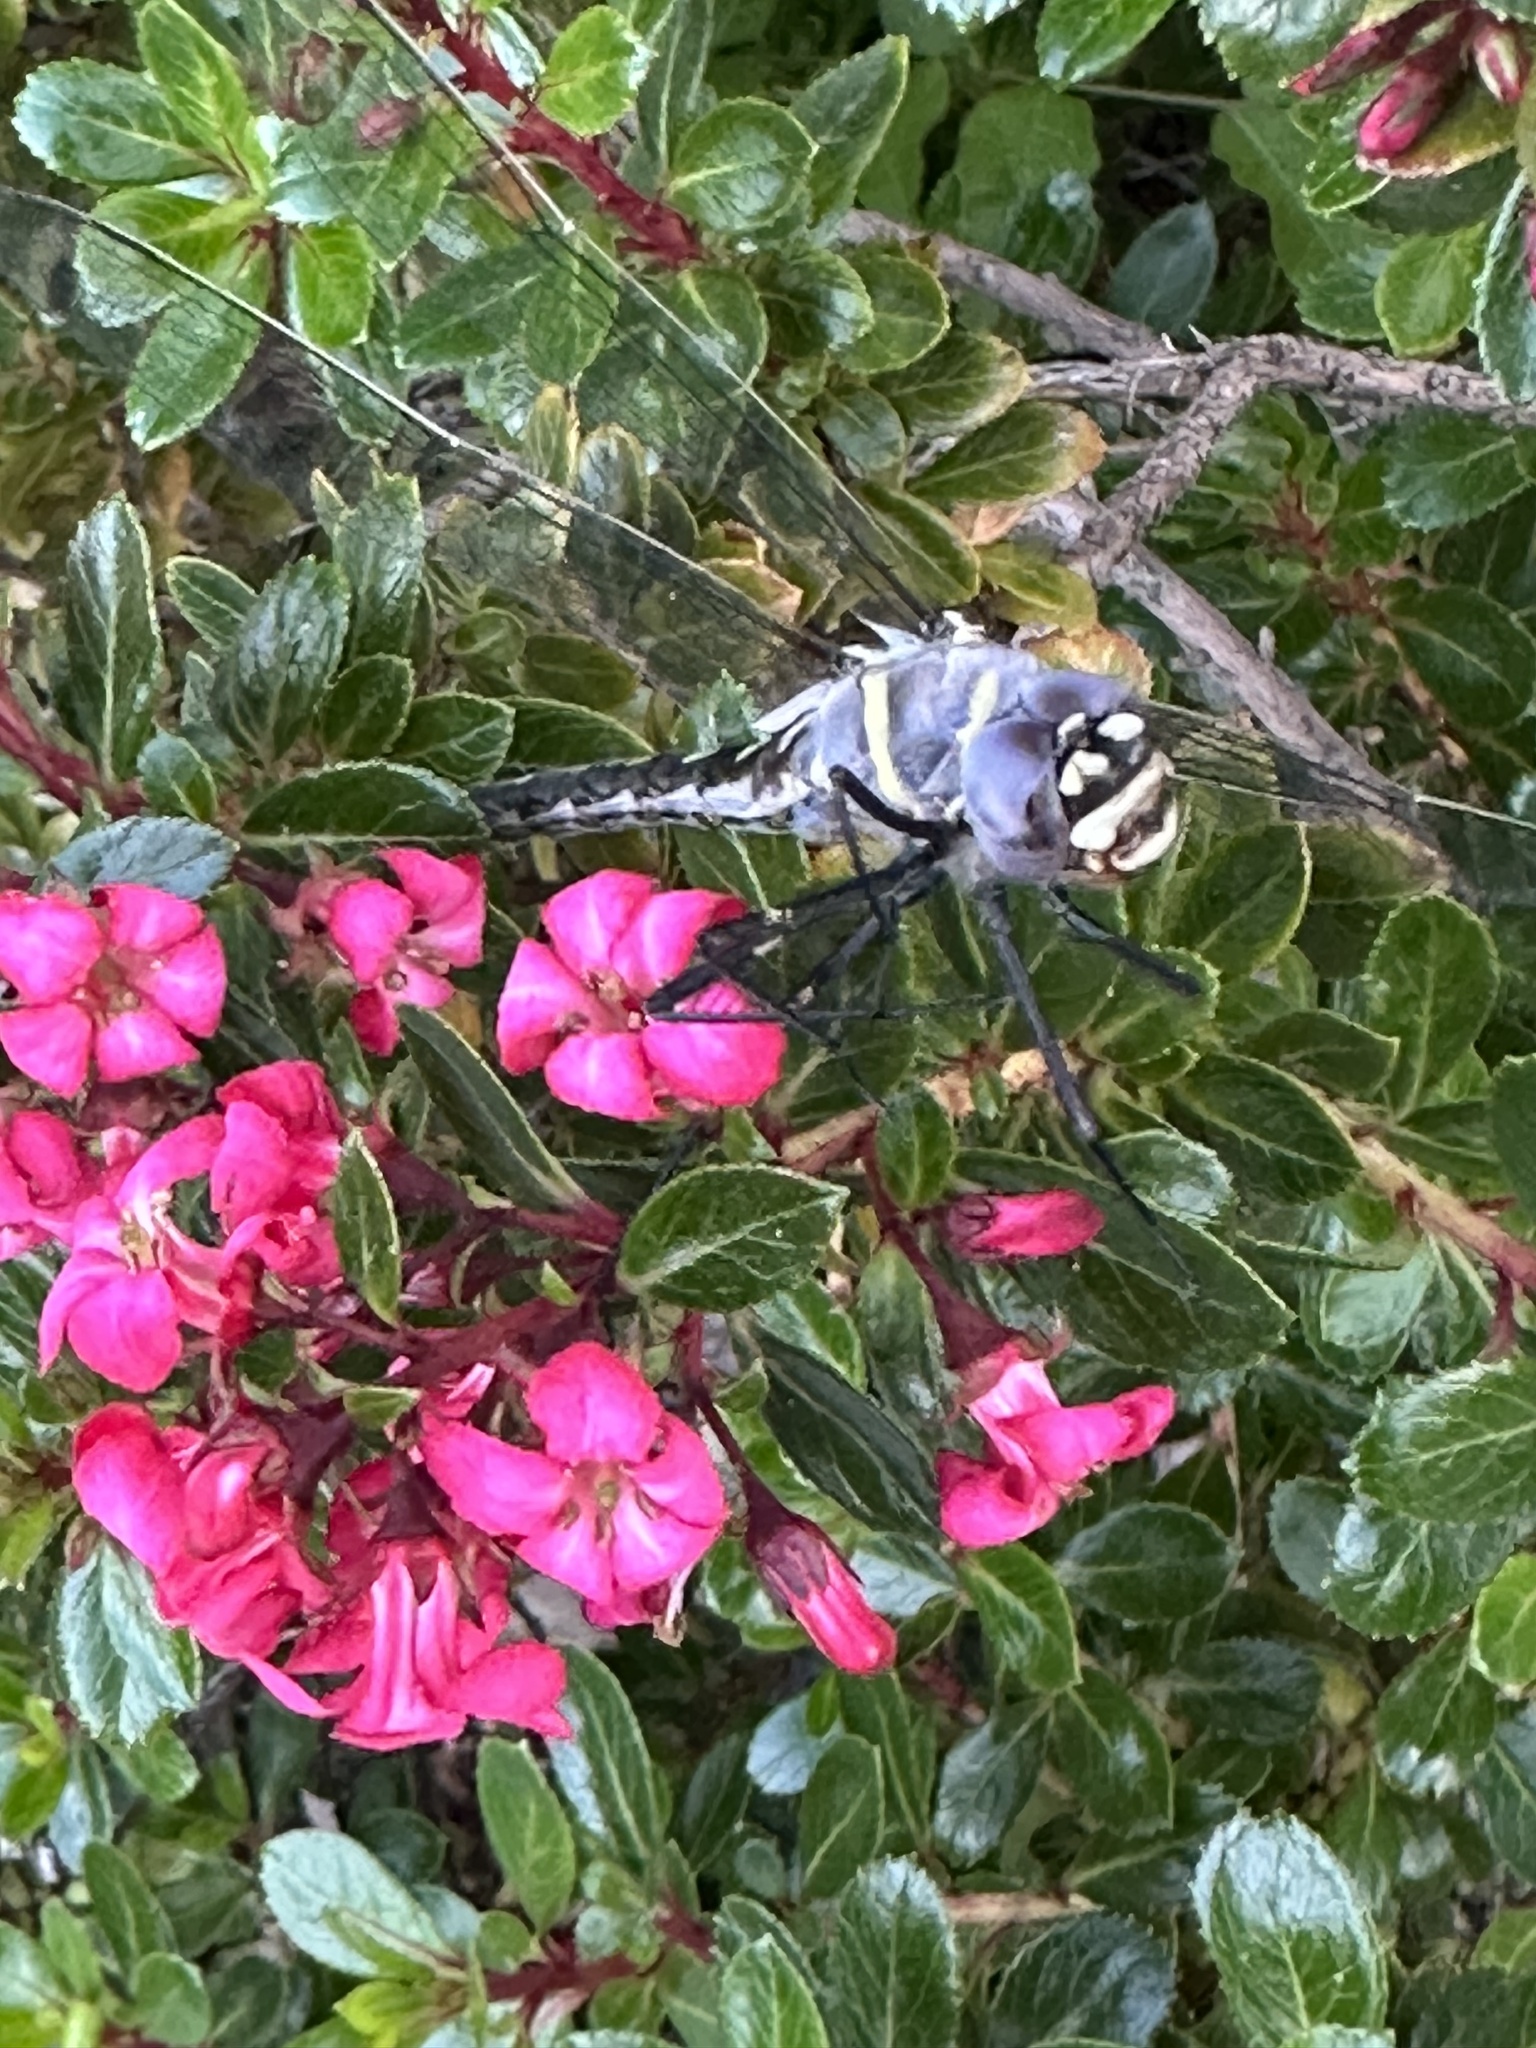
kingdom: Animalia
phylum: Arthropoda
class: Insecta
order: Odonata
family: Macromiidae
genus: Macromia
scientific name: Macromia magnifica
